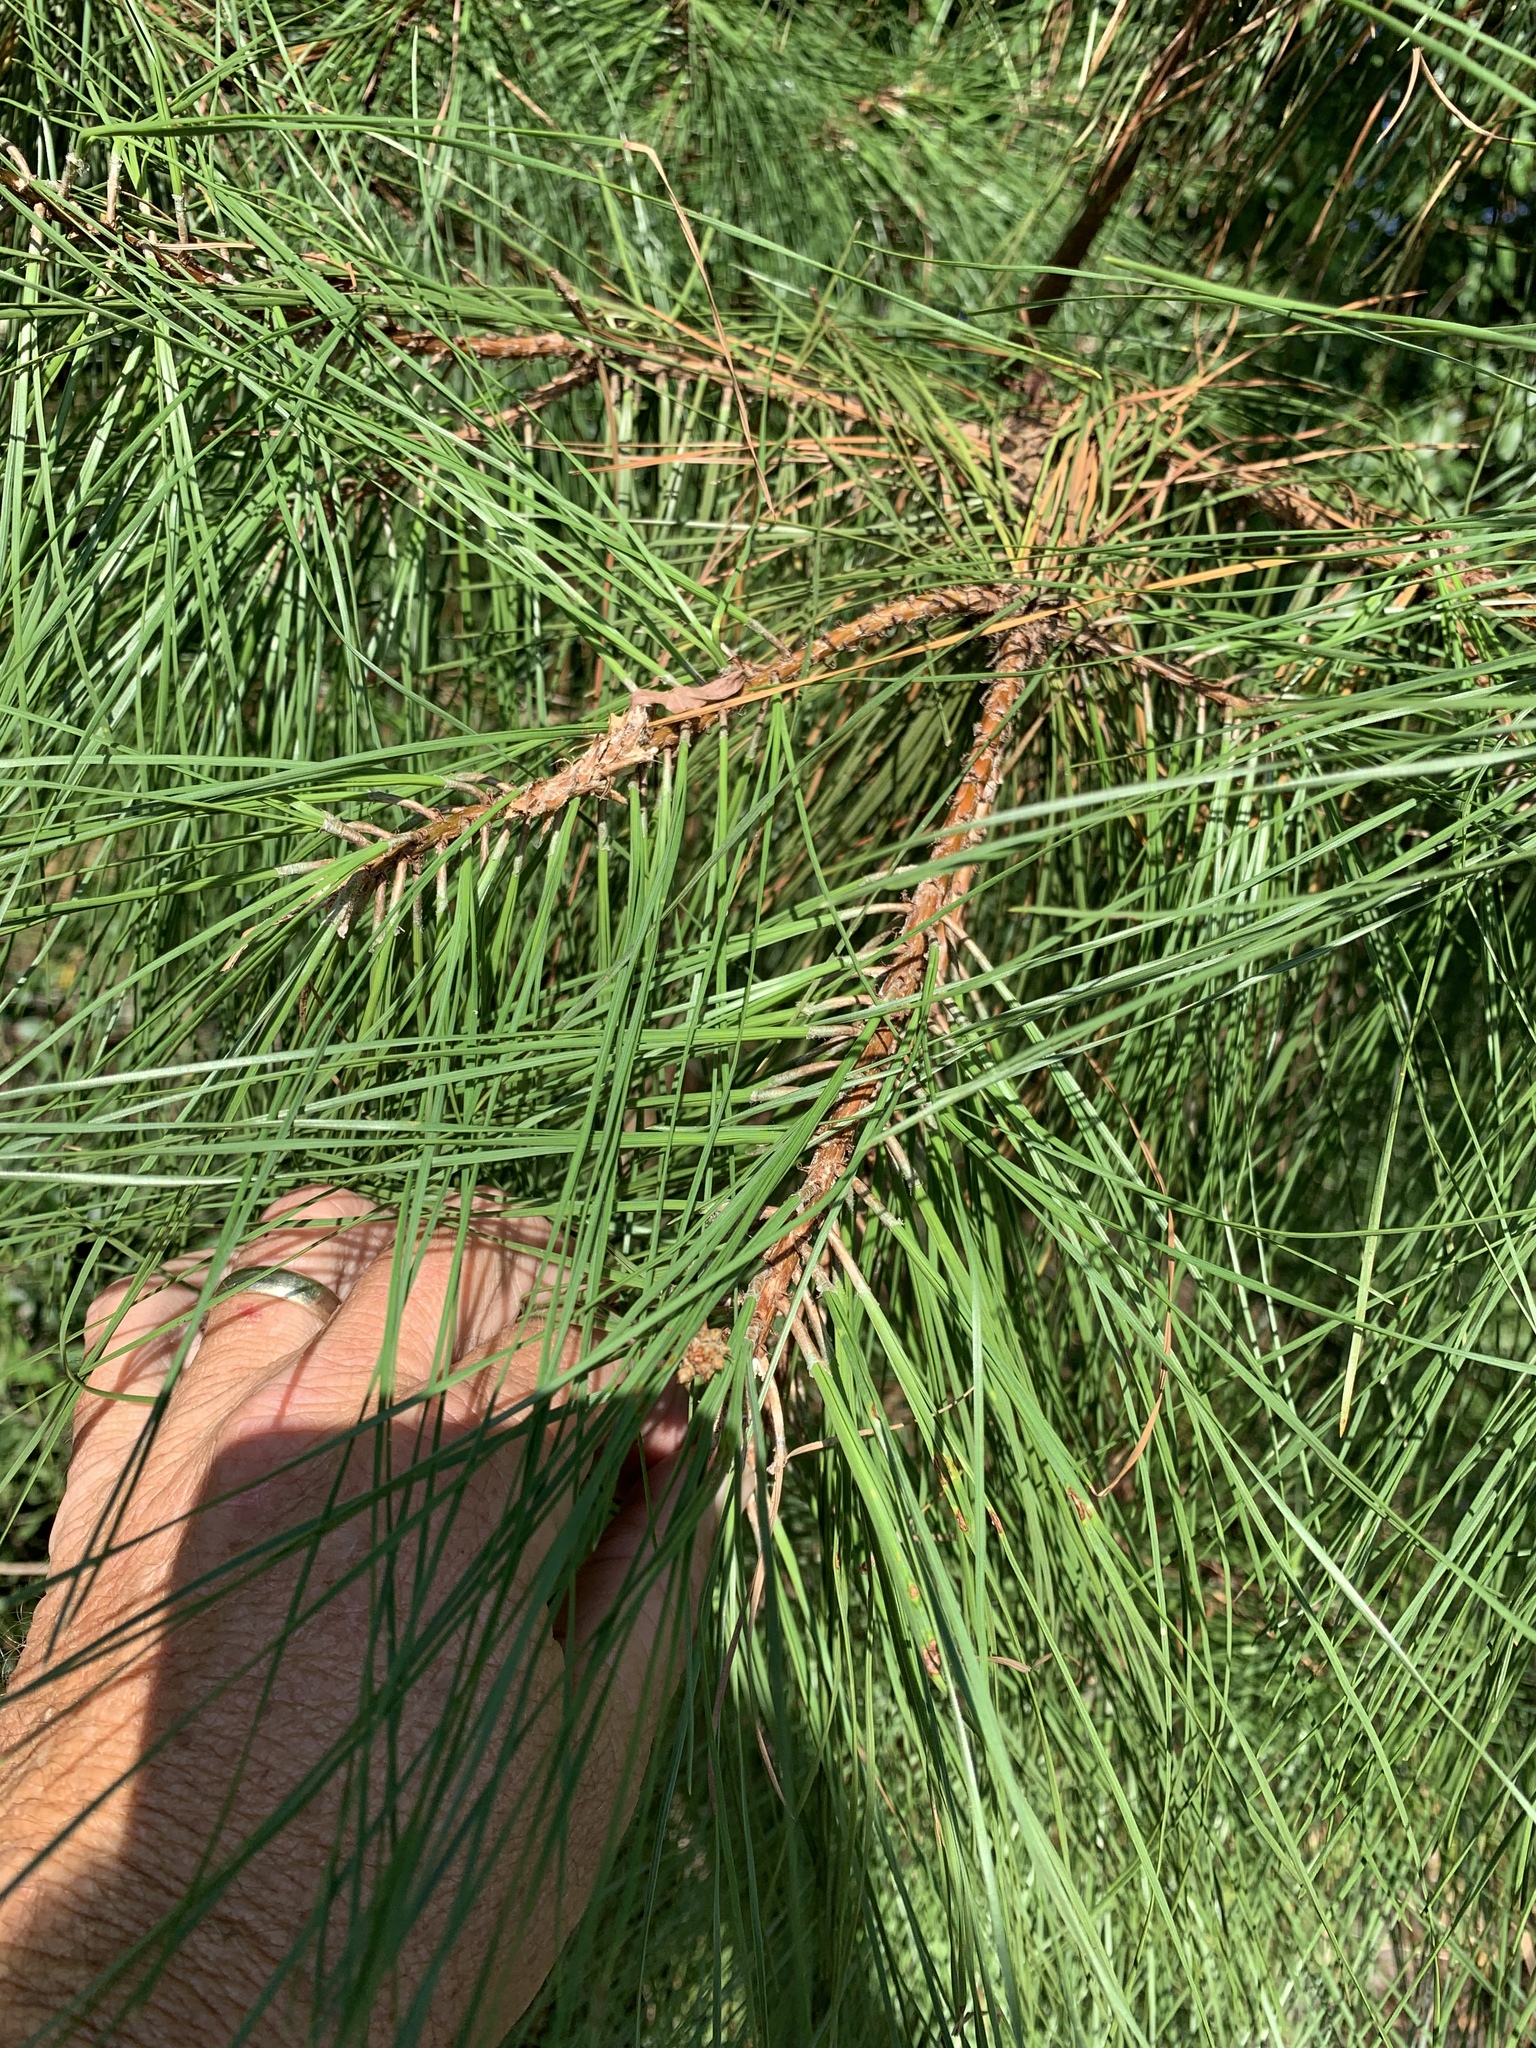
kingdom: Plantae
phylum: Tracheophyta
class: Pinopsida
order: Pinales
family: Pinaceae
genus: Pinus
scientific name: Pinus taeda
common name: Loblolly pine
